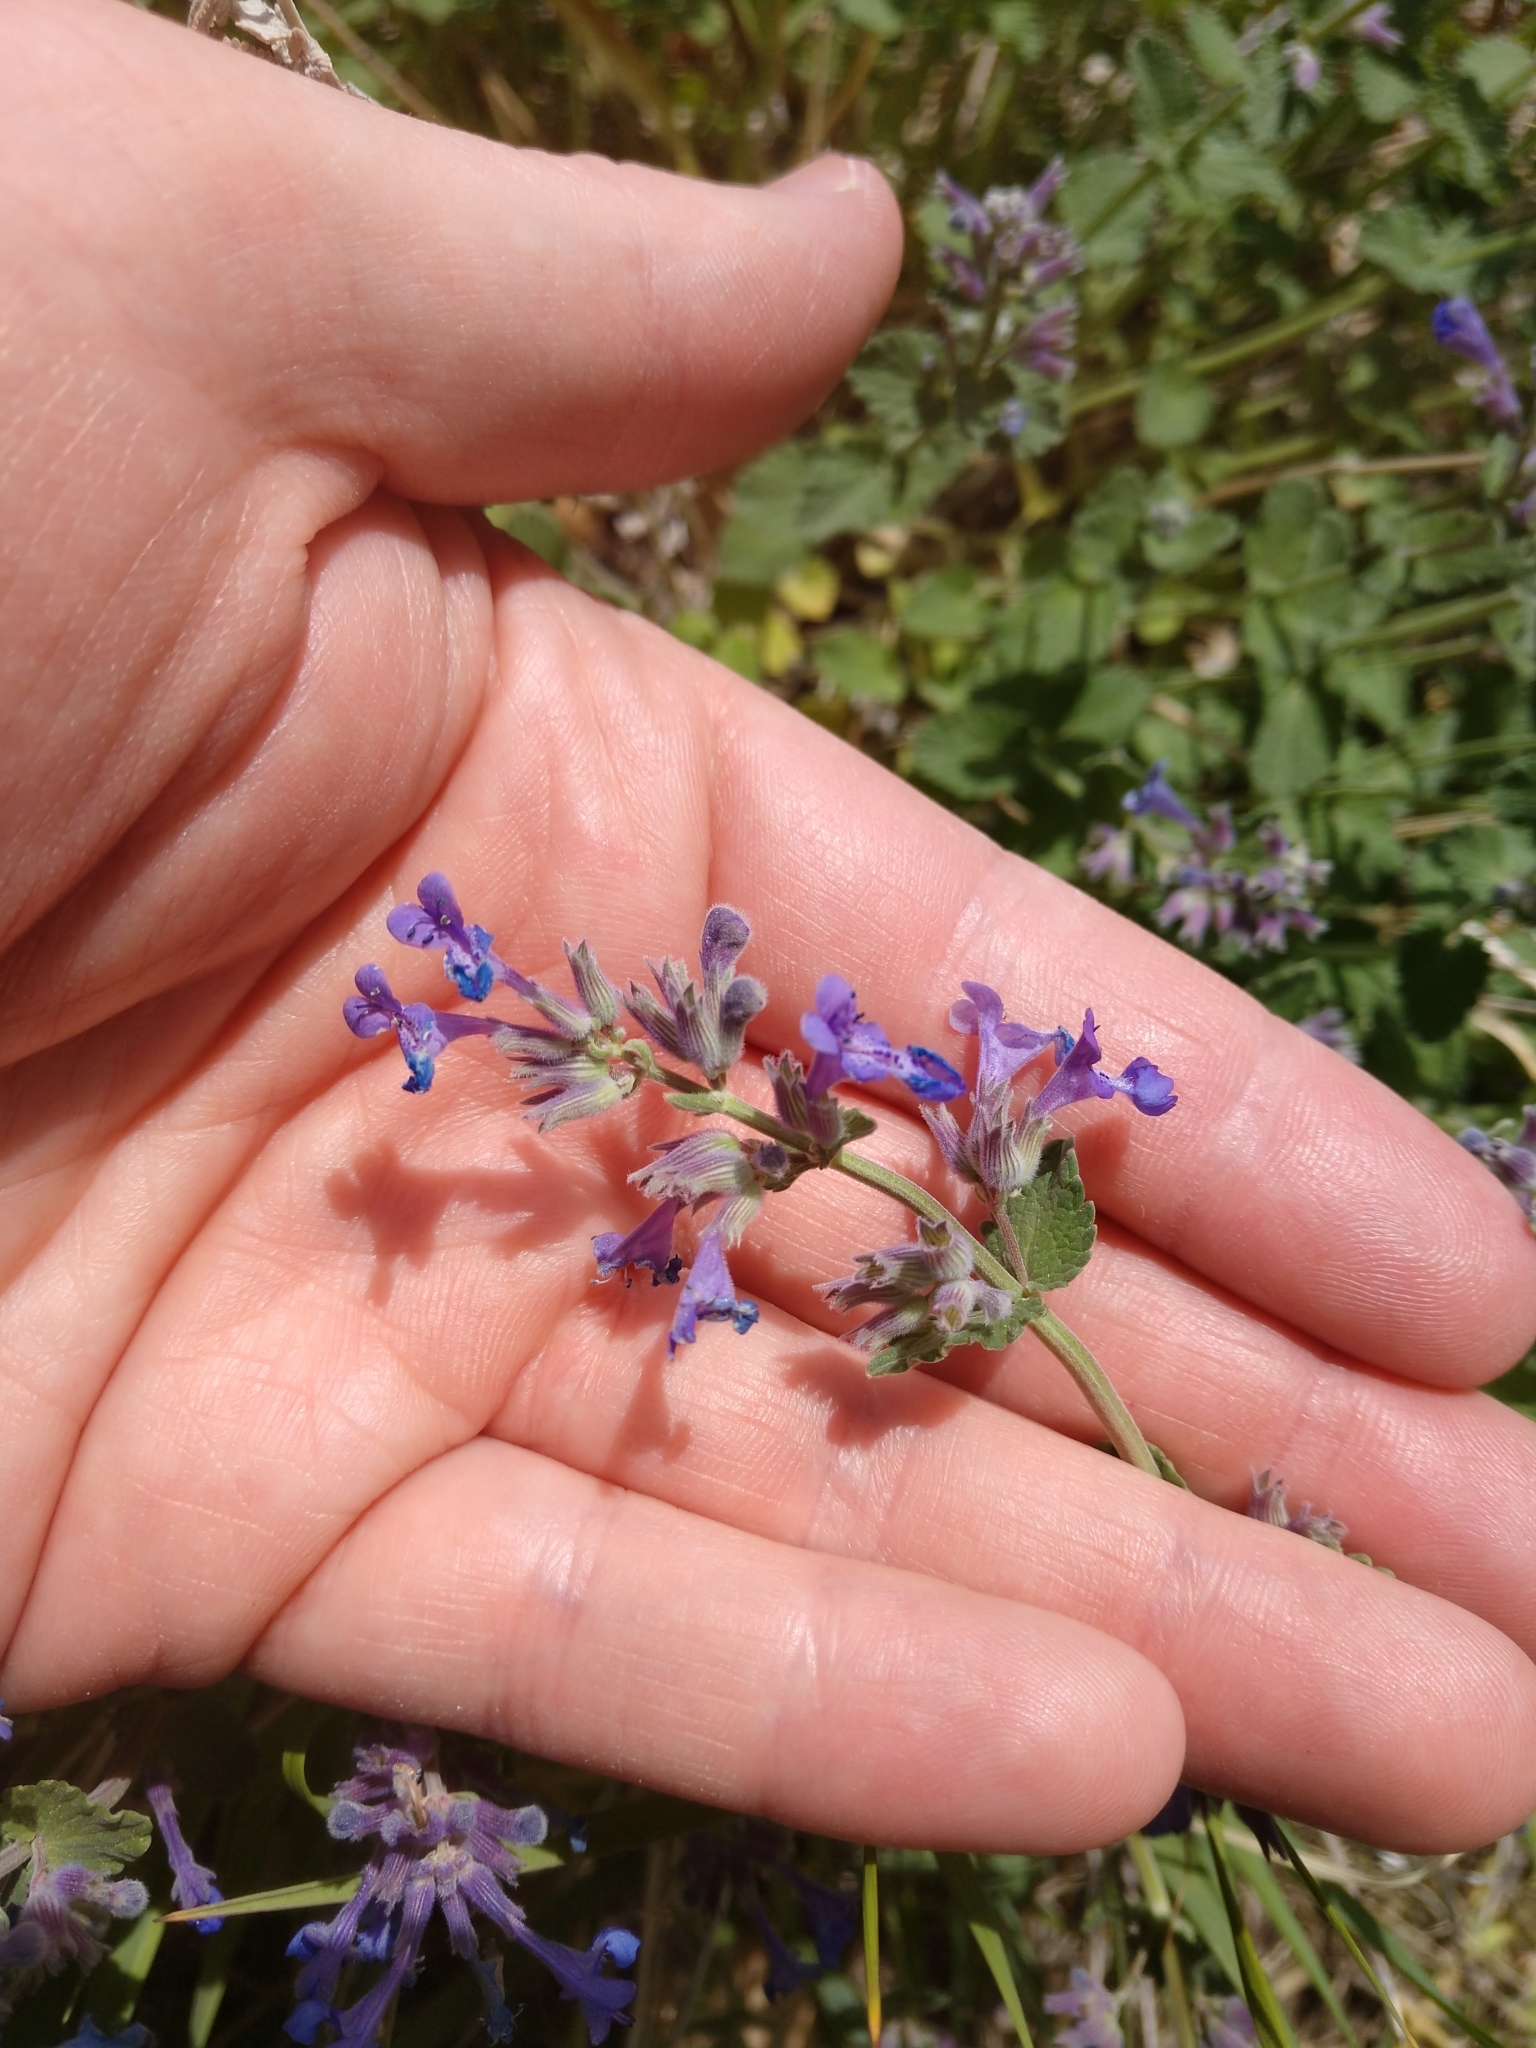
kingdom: Plantae
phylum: Tracheophyta
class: Magnoliopsida
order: Lamiales
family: Lamiaceae
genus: Nepeta
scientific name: Nepeta racemosa
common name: Raceme catnip
